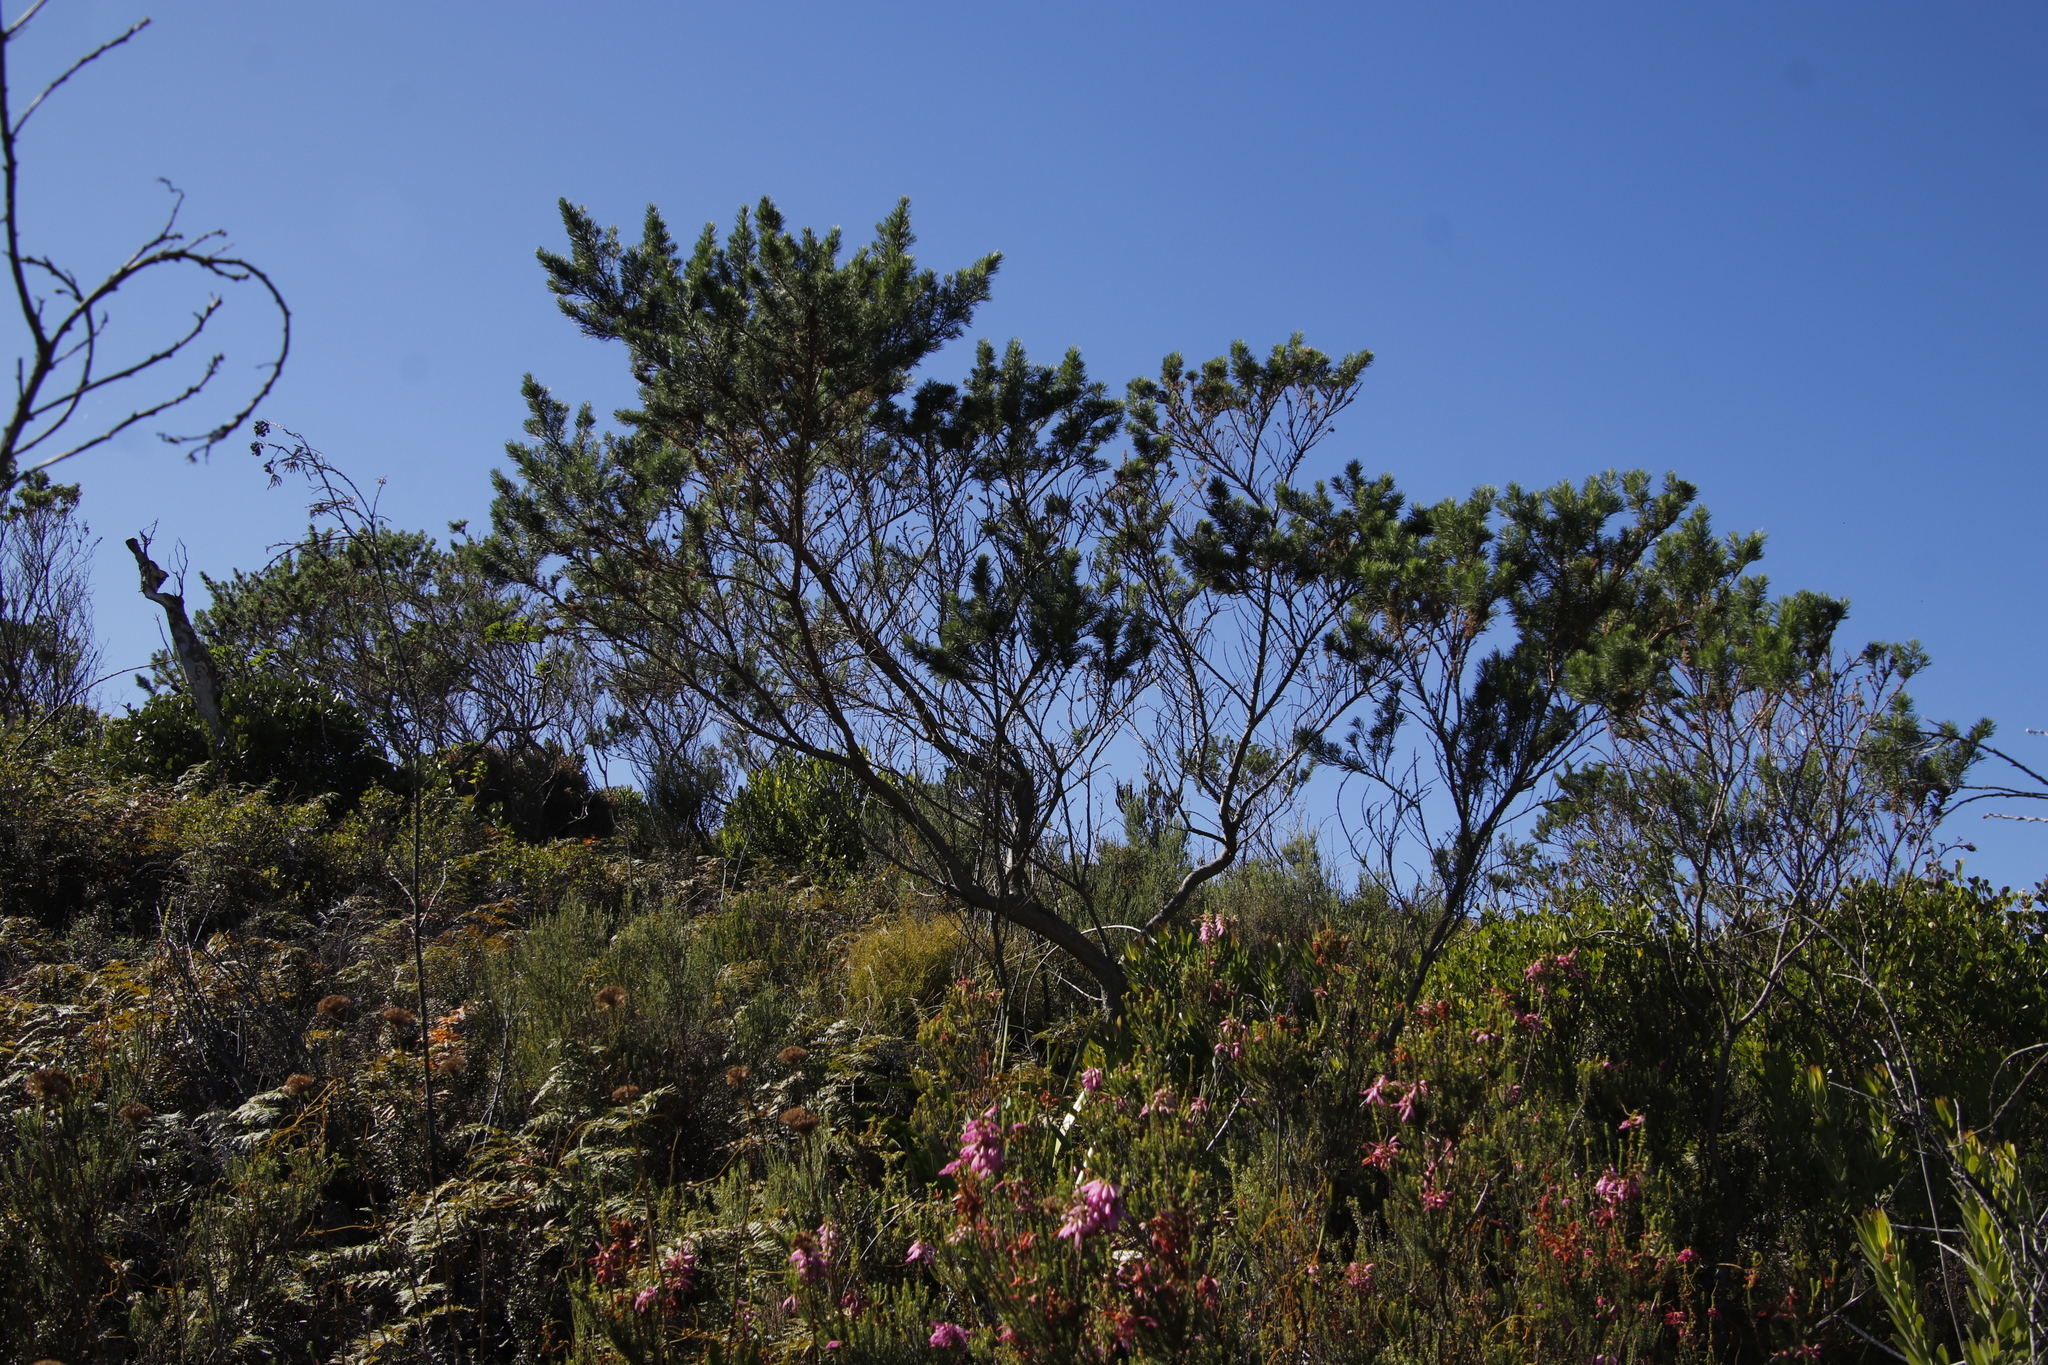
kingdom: Plantae
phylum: Tracheophyta
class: Magnoliopsida
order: Fabales
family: Fabaceae
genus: Psoralea
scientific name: Psoralea pinnata
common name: African scurfpea
